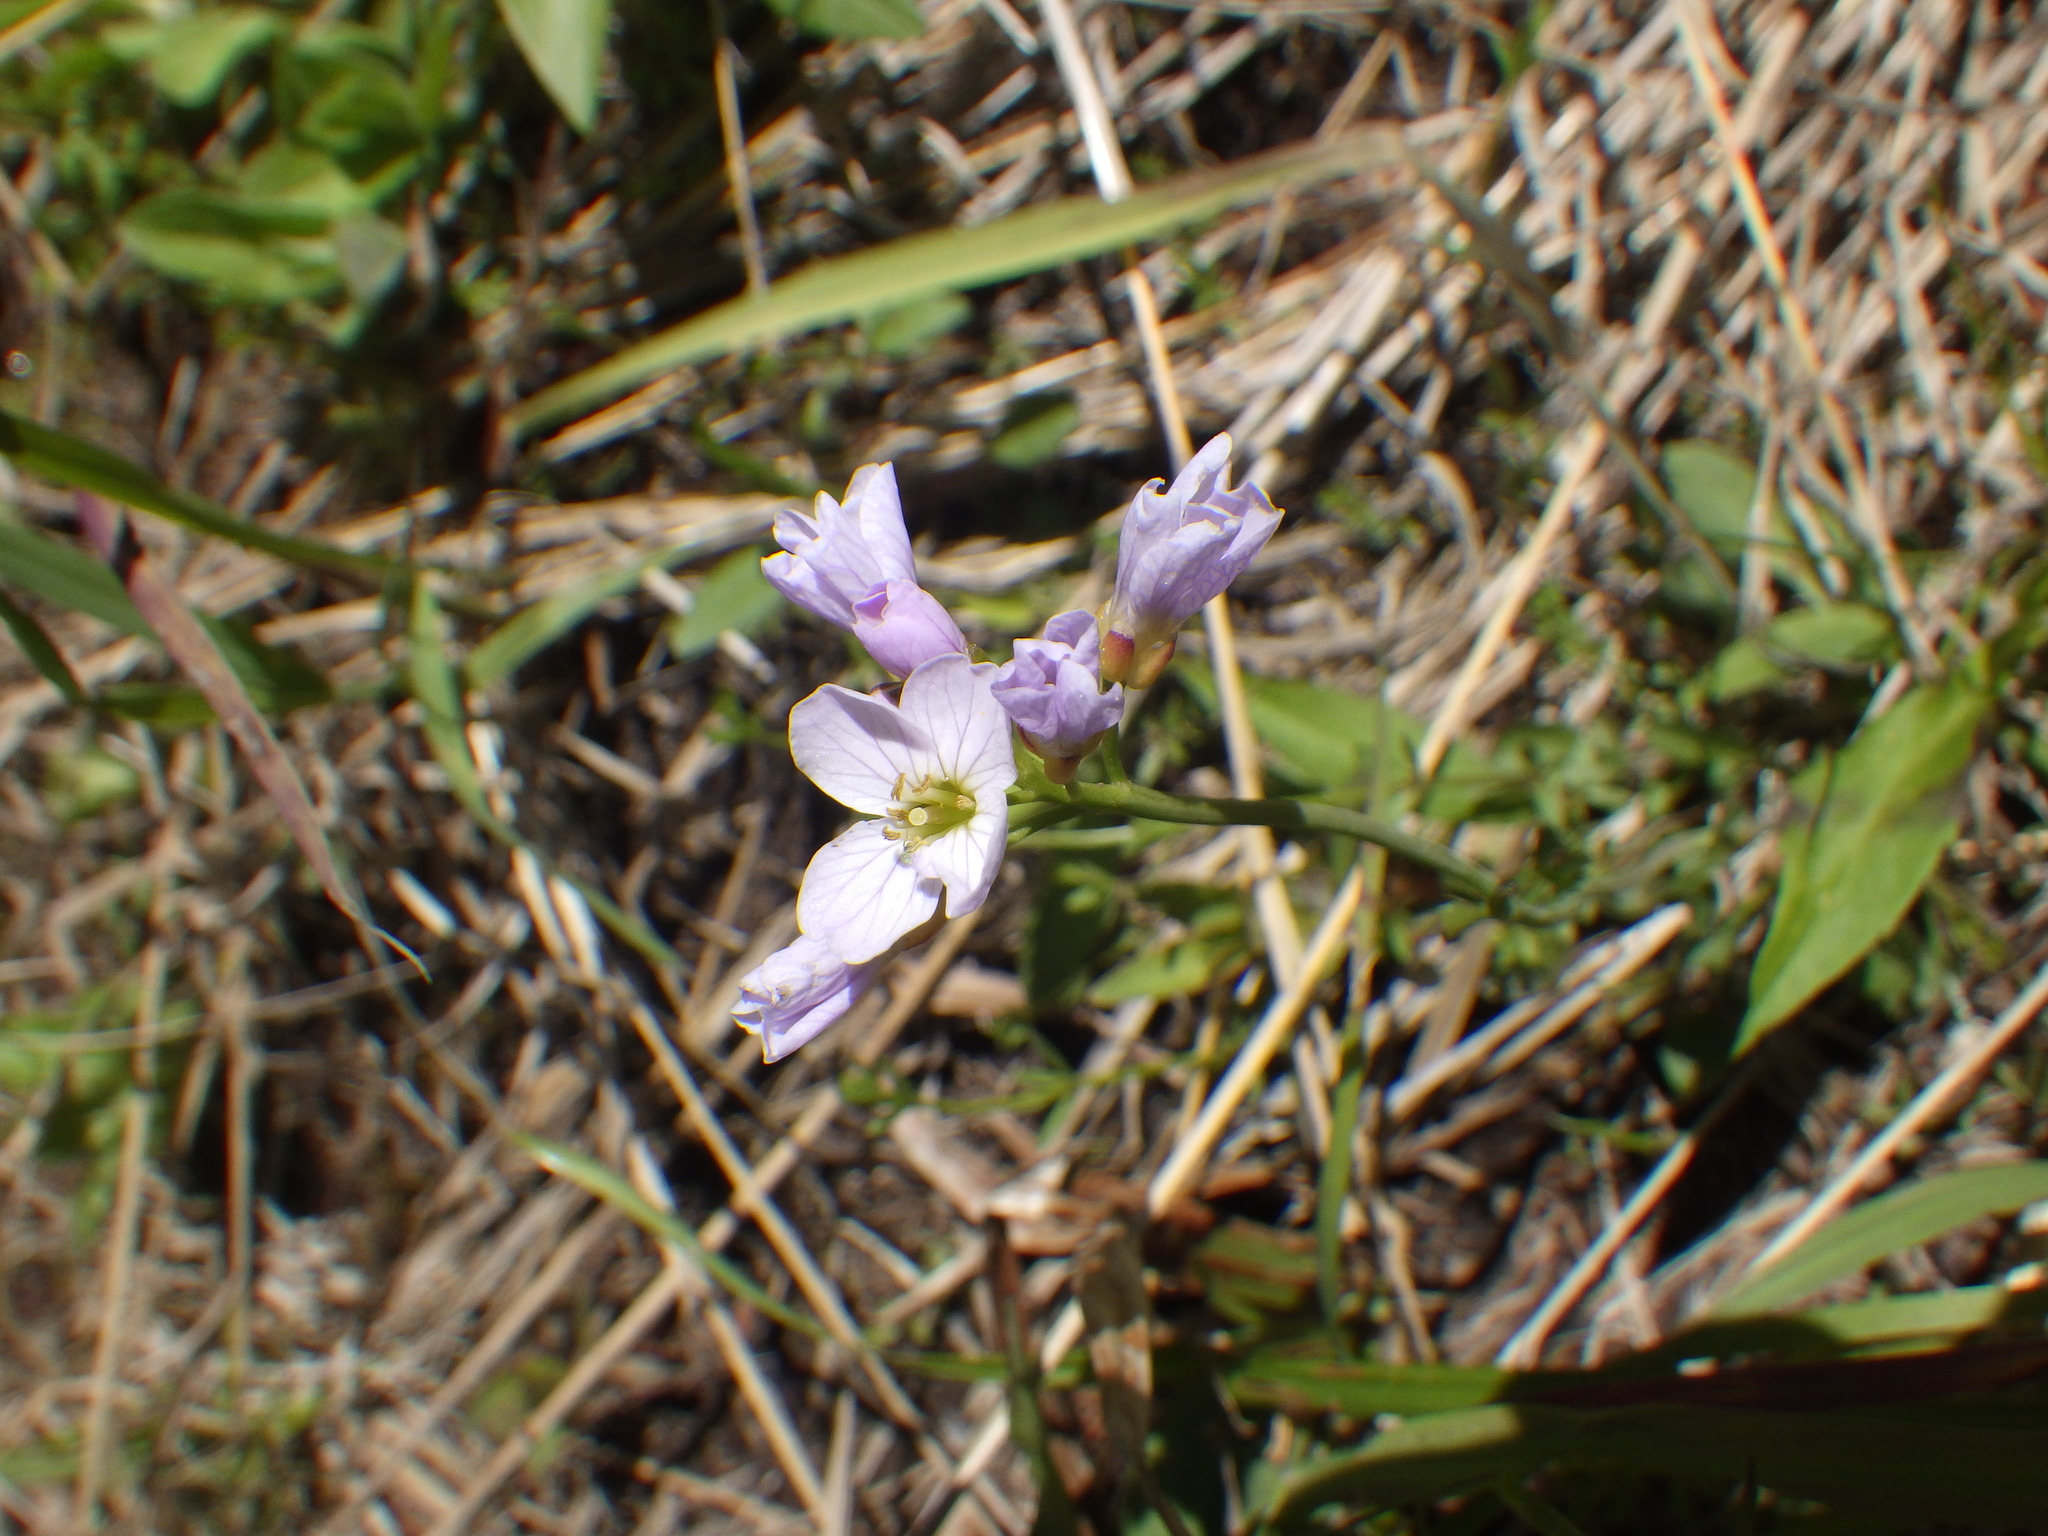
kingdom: Plantae
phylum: Tracheophyta
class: Magnoliopsida
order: Brassicales
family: Brassicaceae
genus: Cardamine
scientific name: Cardamine pratensis
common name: Cuckoo flower
